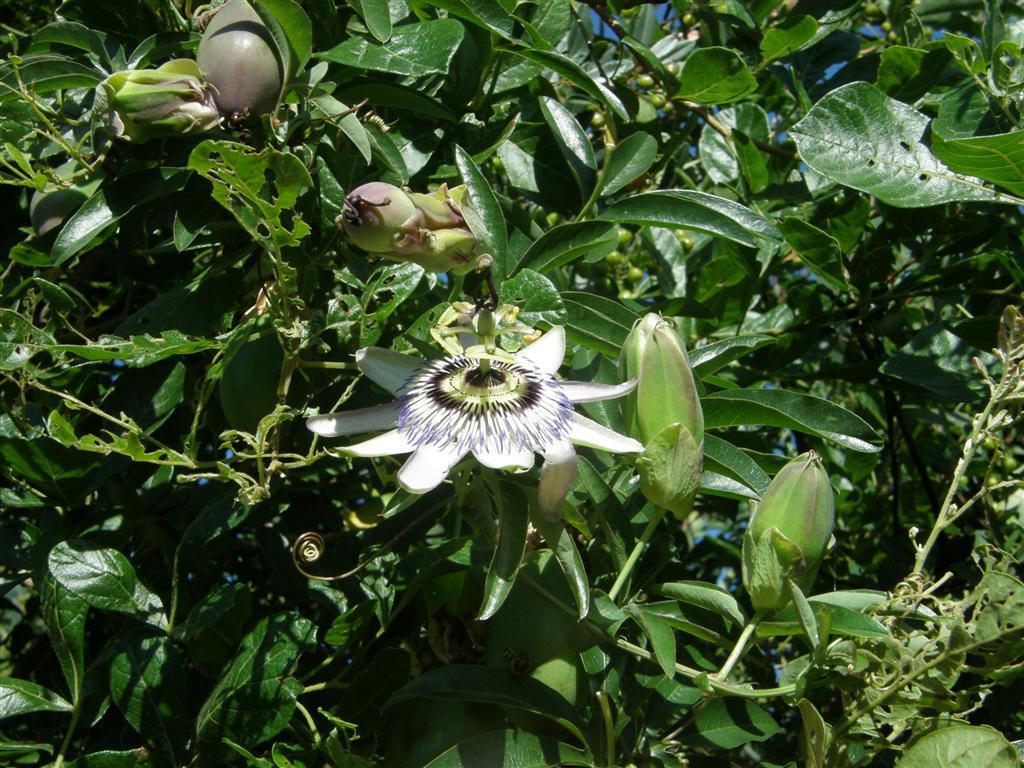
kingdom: Plantae
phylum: Tracheophyta
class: Magnoliopsida
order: Malpighiales
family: Passifloraceae
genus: Passiflora
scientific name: Passiflora caerulea
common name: Blue passionflower
